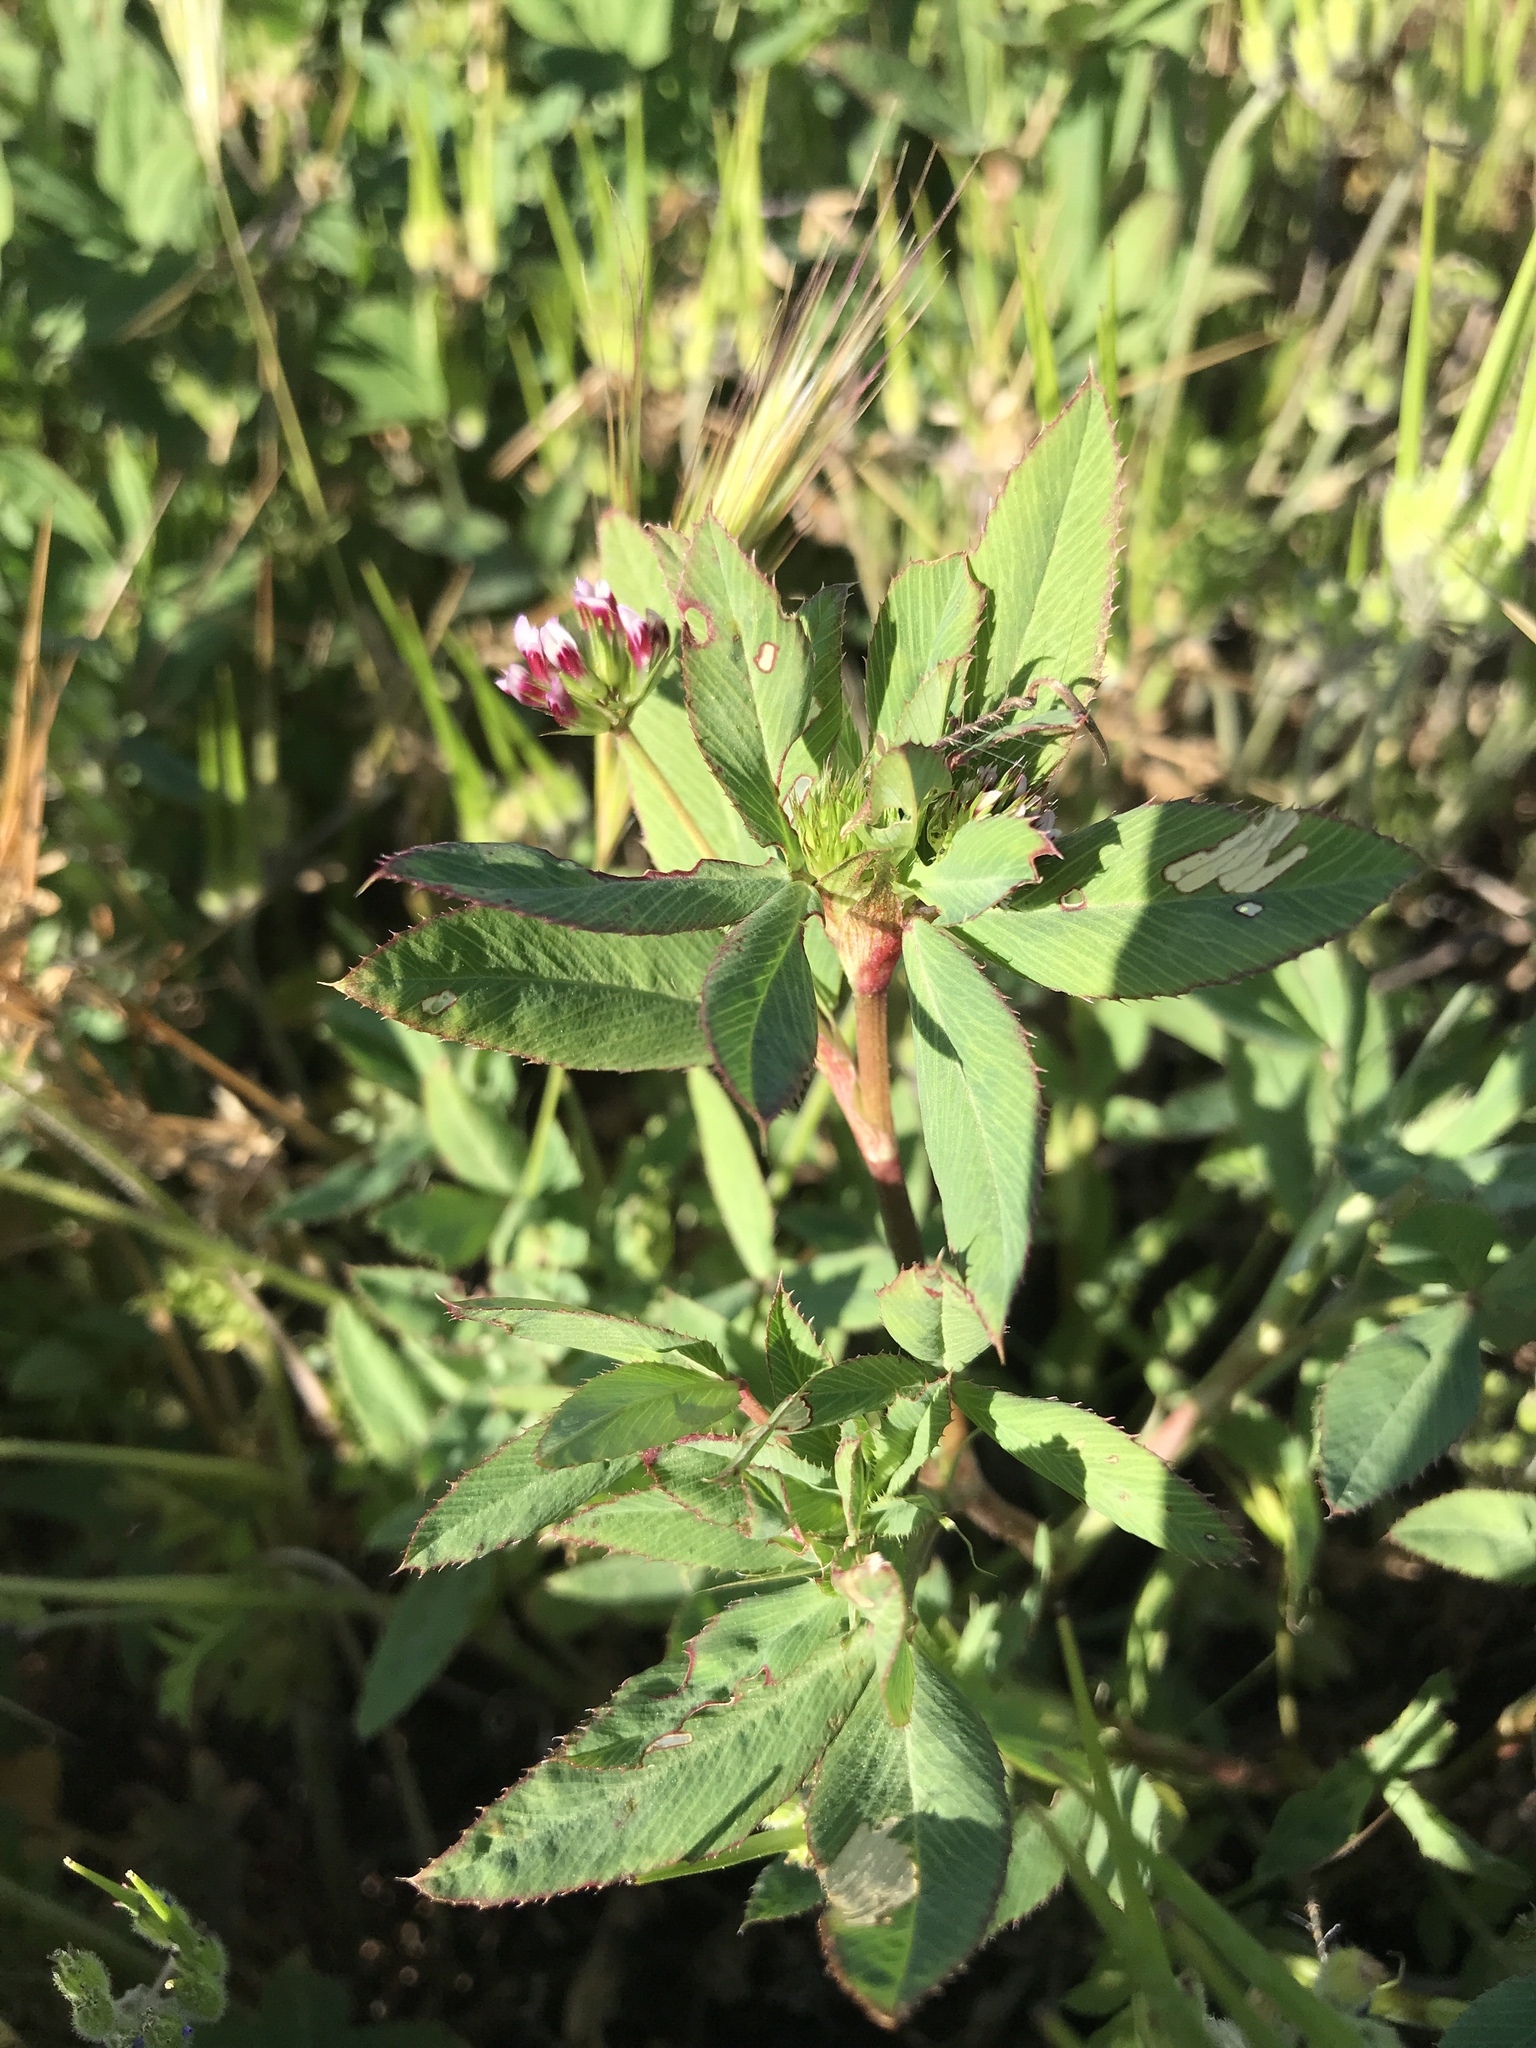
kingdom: Plantae
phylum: Tracheophyta
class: Magnoliopsida
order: Fabales
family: Fabaceae
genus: Trifolium
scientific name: Trifolium palmeri
